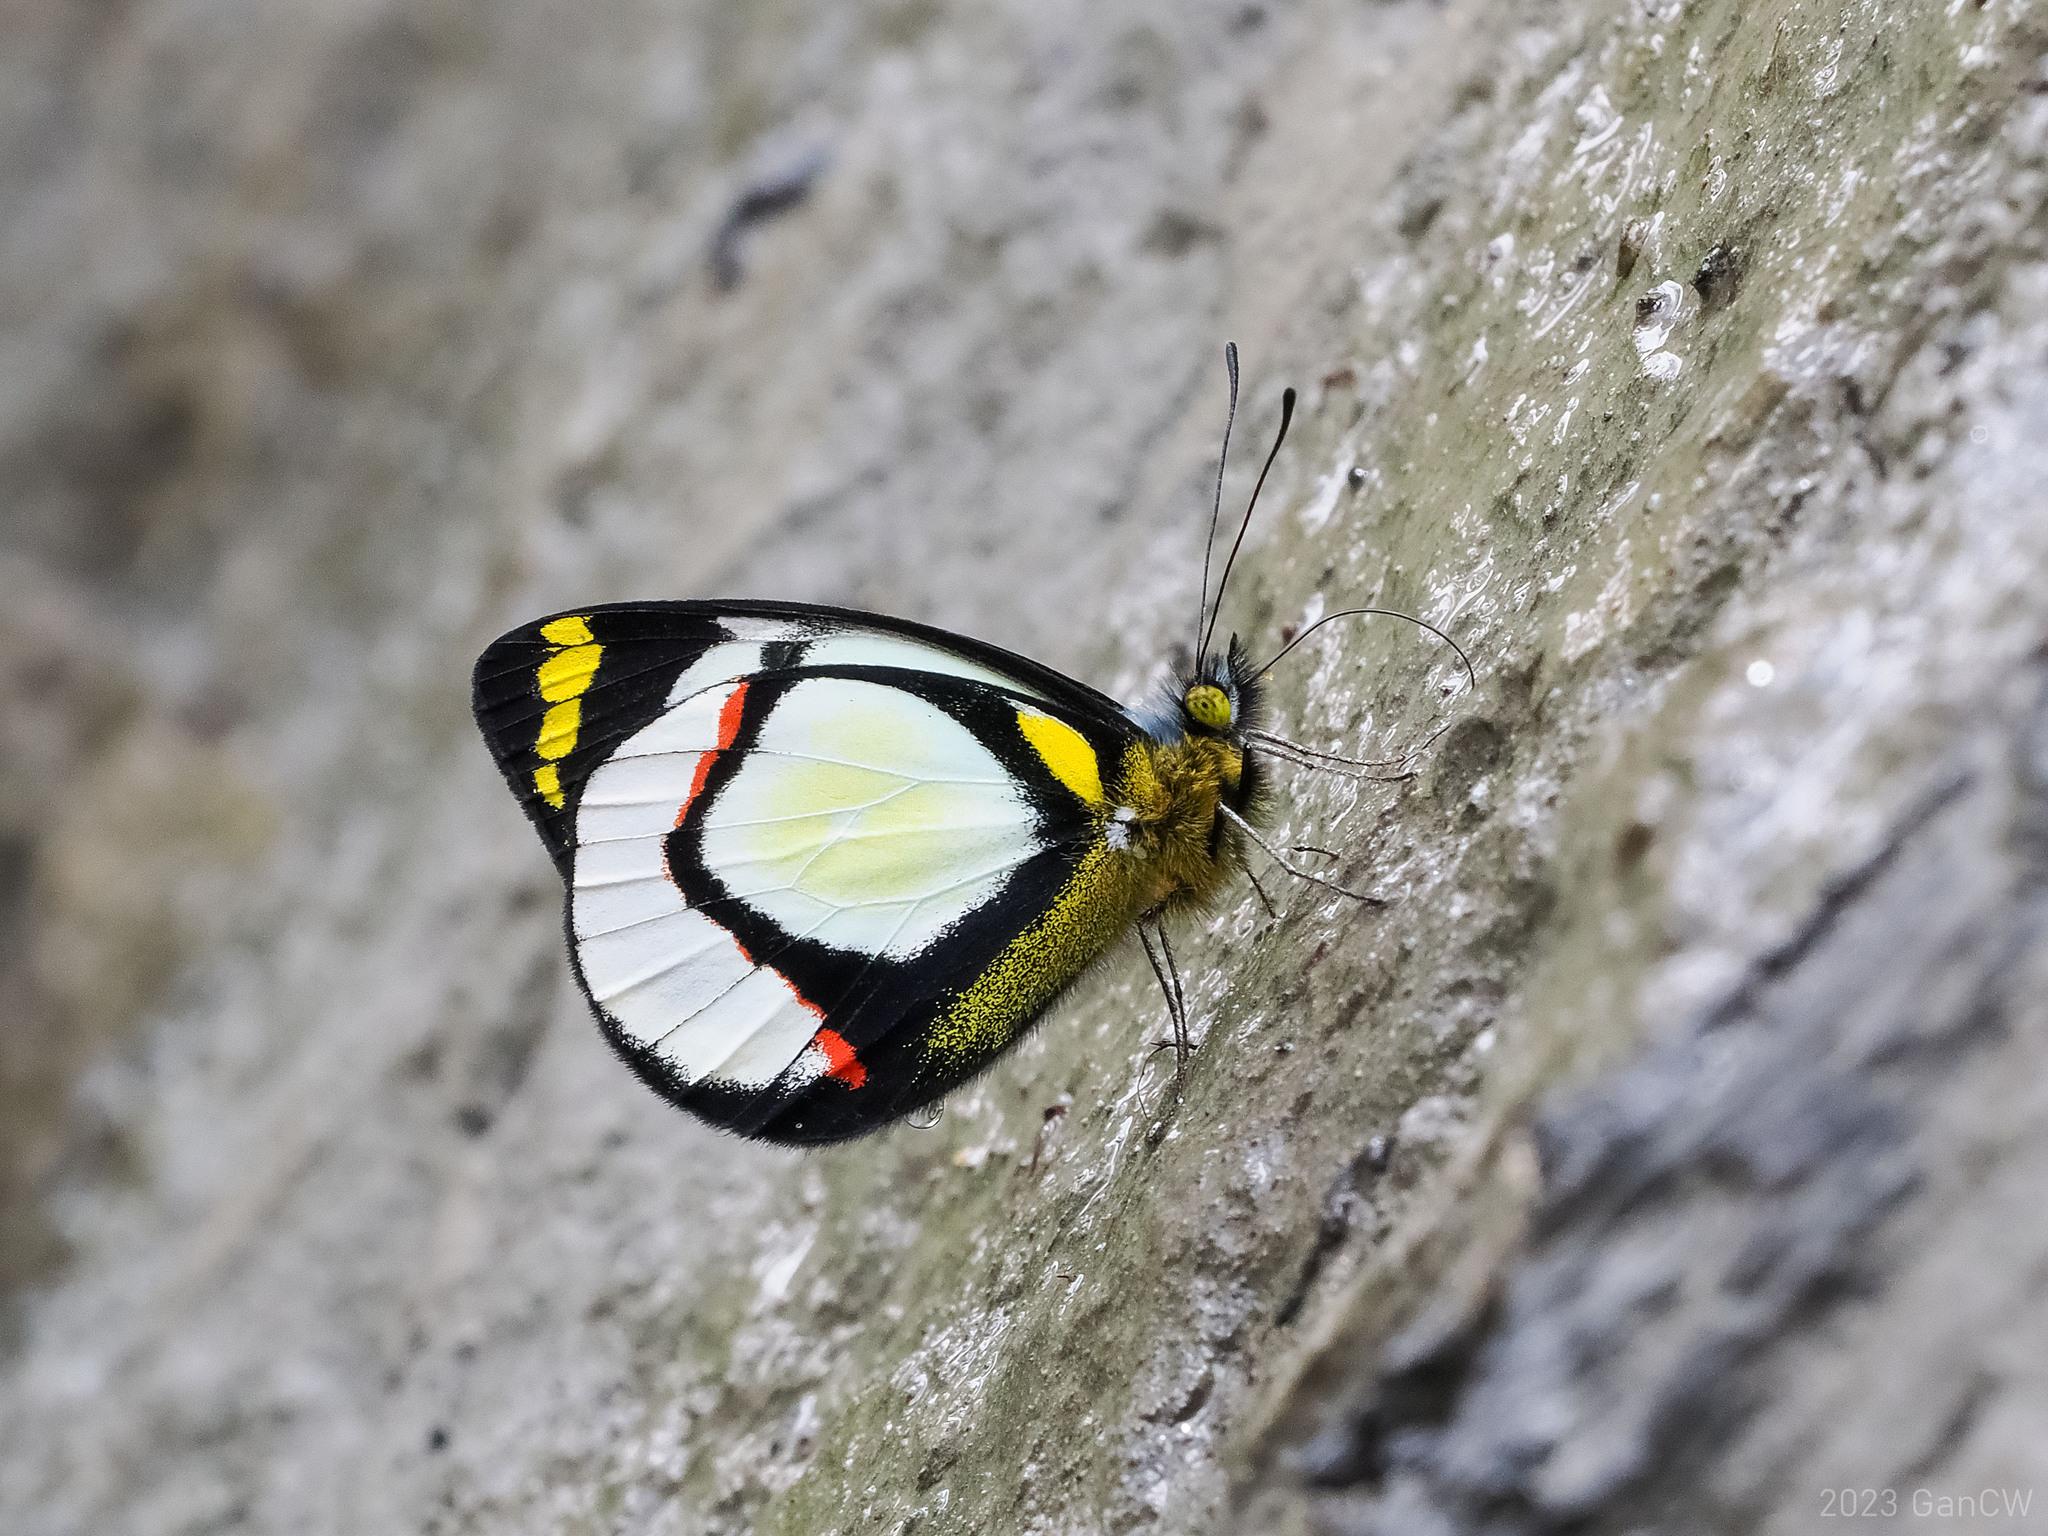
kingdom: Animalia
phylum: Arthropoda
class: Insecta
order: Lepidoptera
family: Pieridae
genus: Delias
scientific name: Delias hapalina
